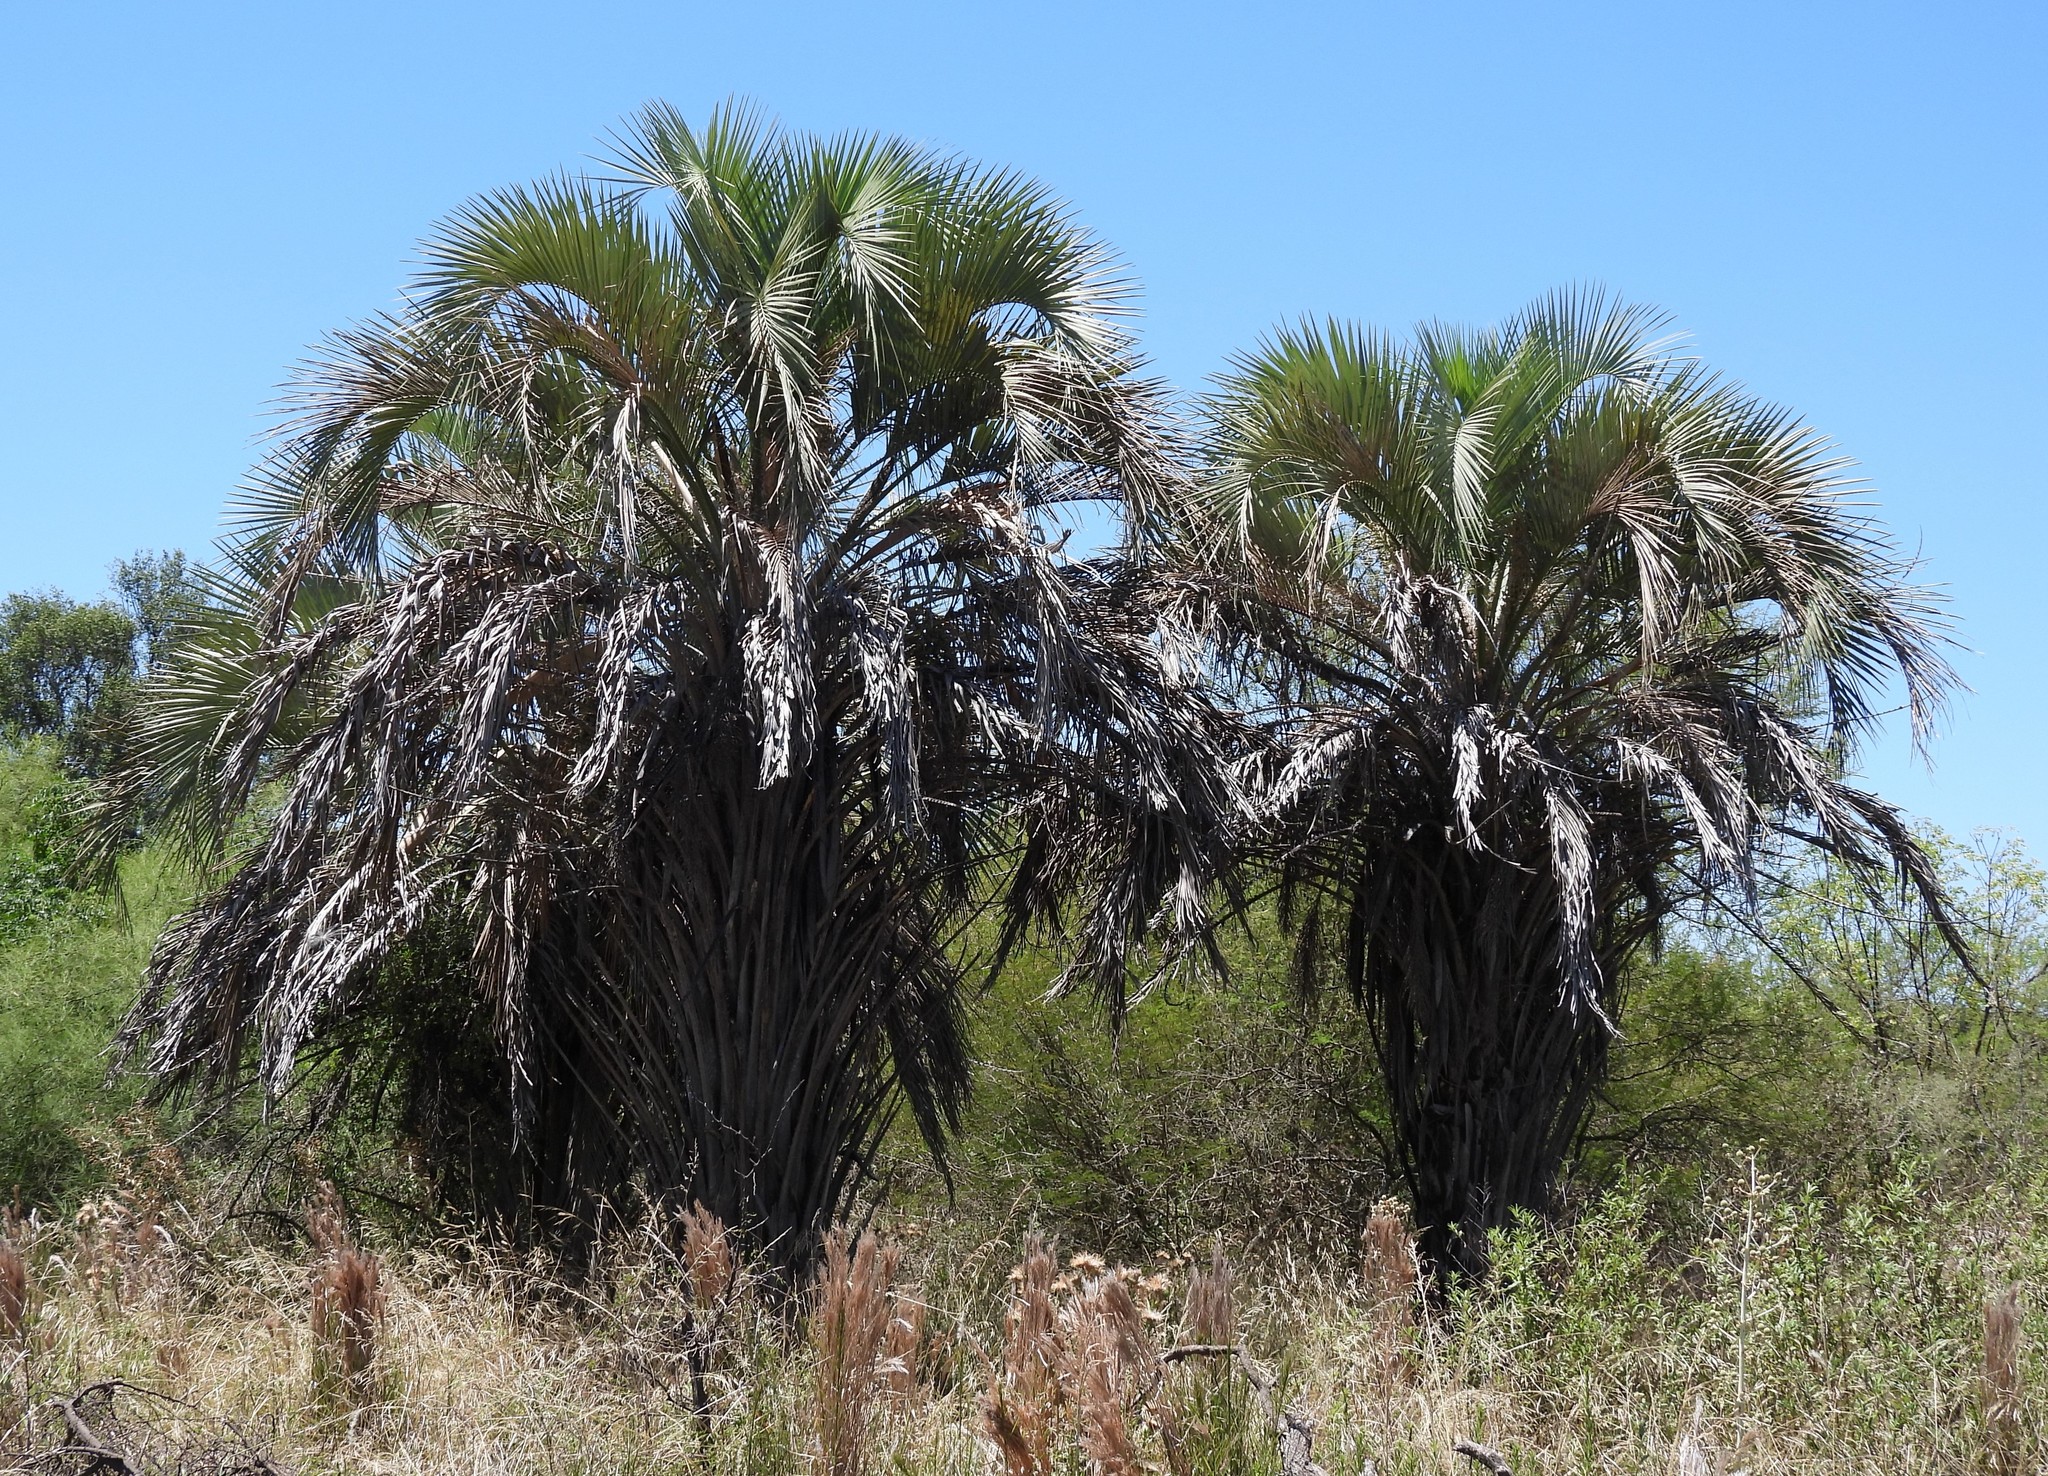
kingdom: Plantae
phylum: Tracheophyta
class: Liliopsida
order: Arecales
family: Arecaceae
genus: Butia
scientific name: Butia yatay
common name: Yatay palm
